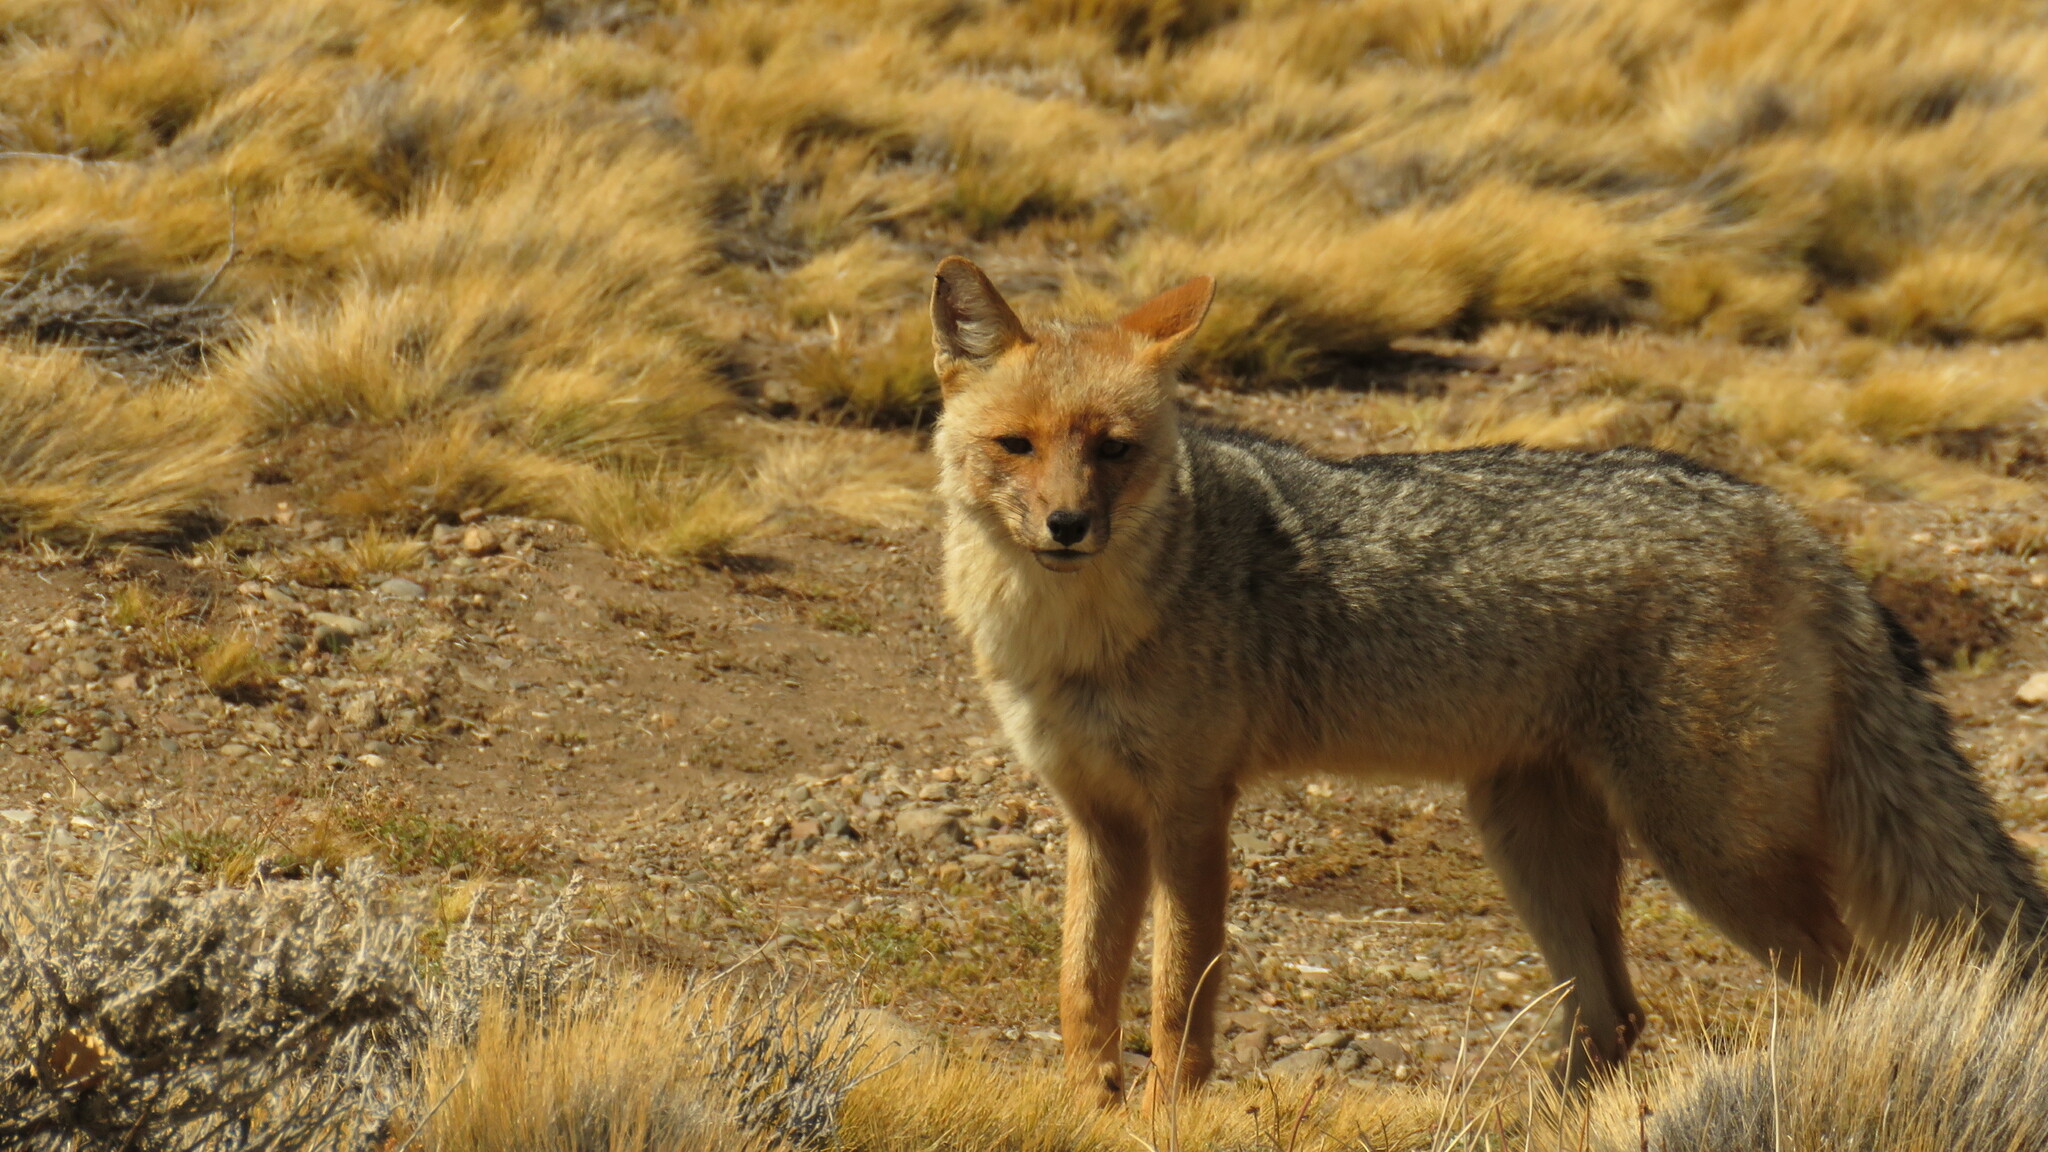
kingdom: Animalia
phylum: Chordata
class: Mammalia
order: Carnivora
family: Canidae
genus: Lycalopex
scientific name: Lycalopex culpaeus
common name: Culpeo
